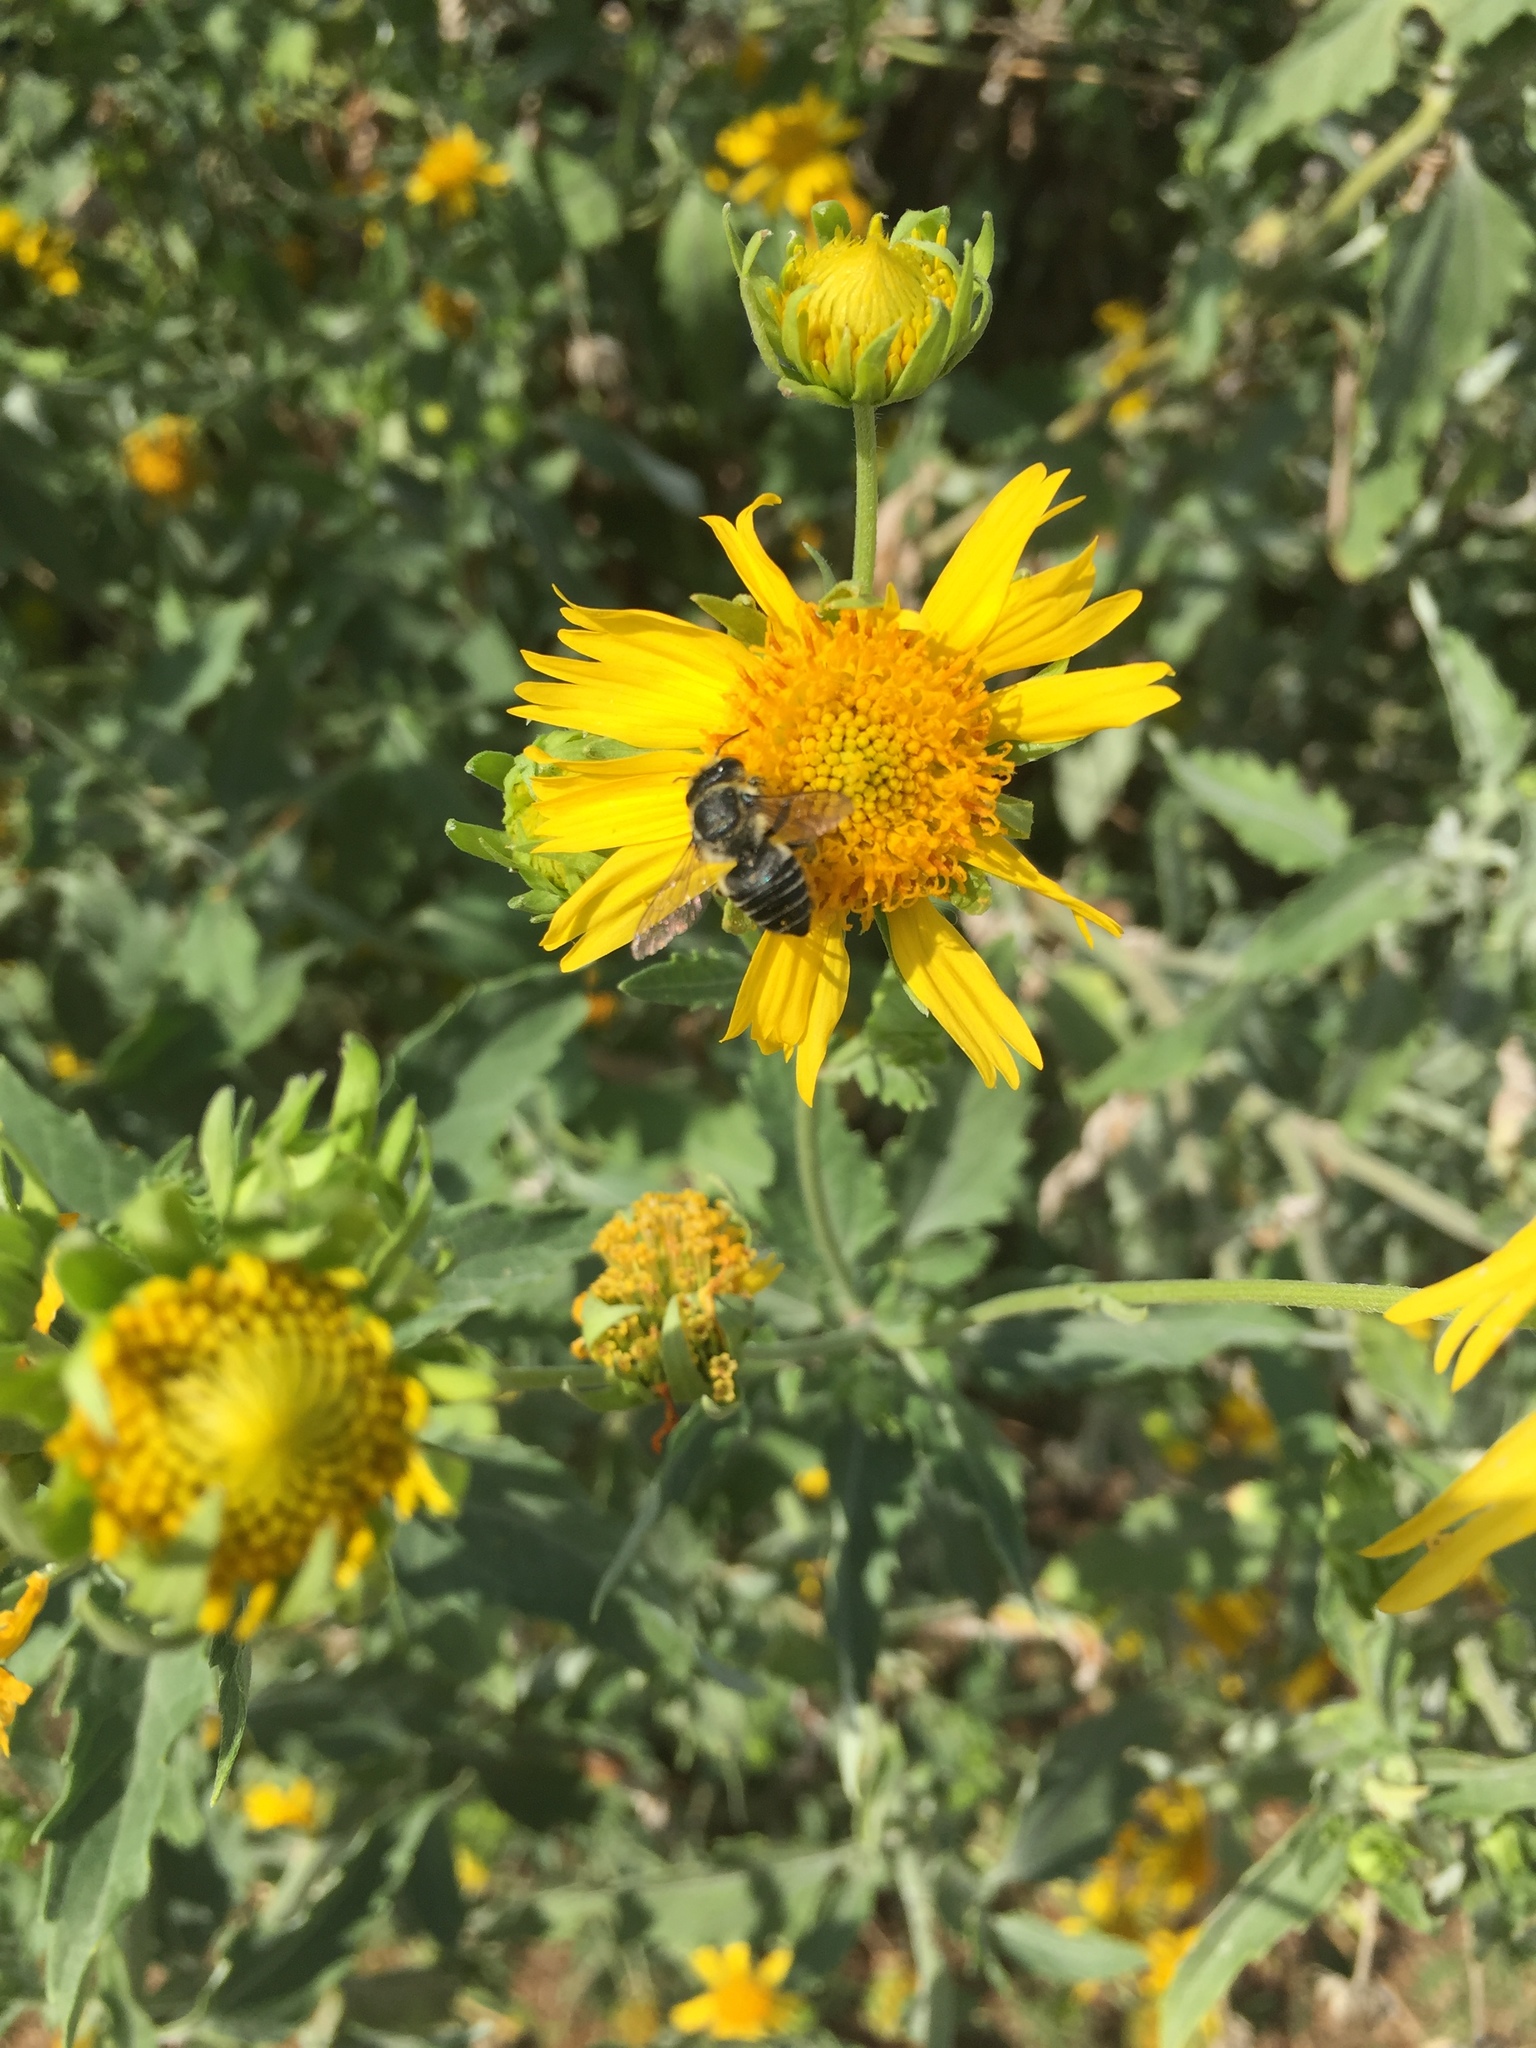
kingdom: Animalia
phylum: Arthropoda
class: Insecta
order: Hymenoptera
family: Megachilidae
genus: Megachile
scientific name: Megachile
